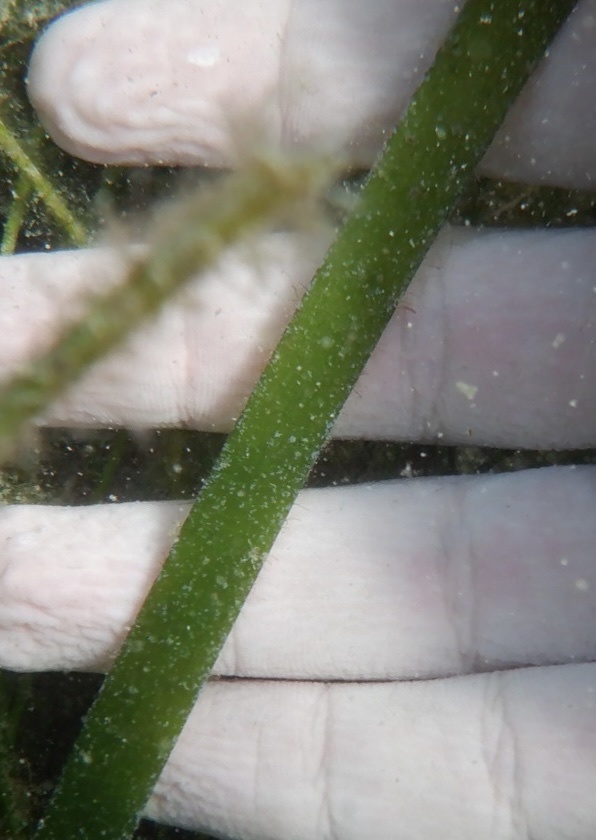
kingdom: Plantae
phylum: Tracheophyta
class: Liliopsida
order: Alismatales
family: Hydrocharitaceae
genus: Thalassia
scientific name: Thalassia testudinum
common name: Species code: tt
